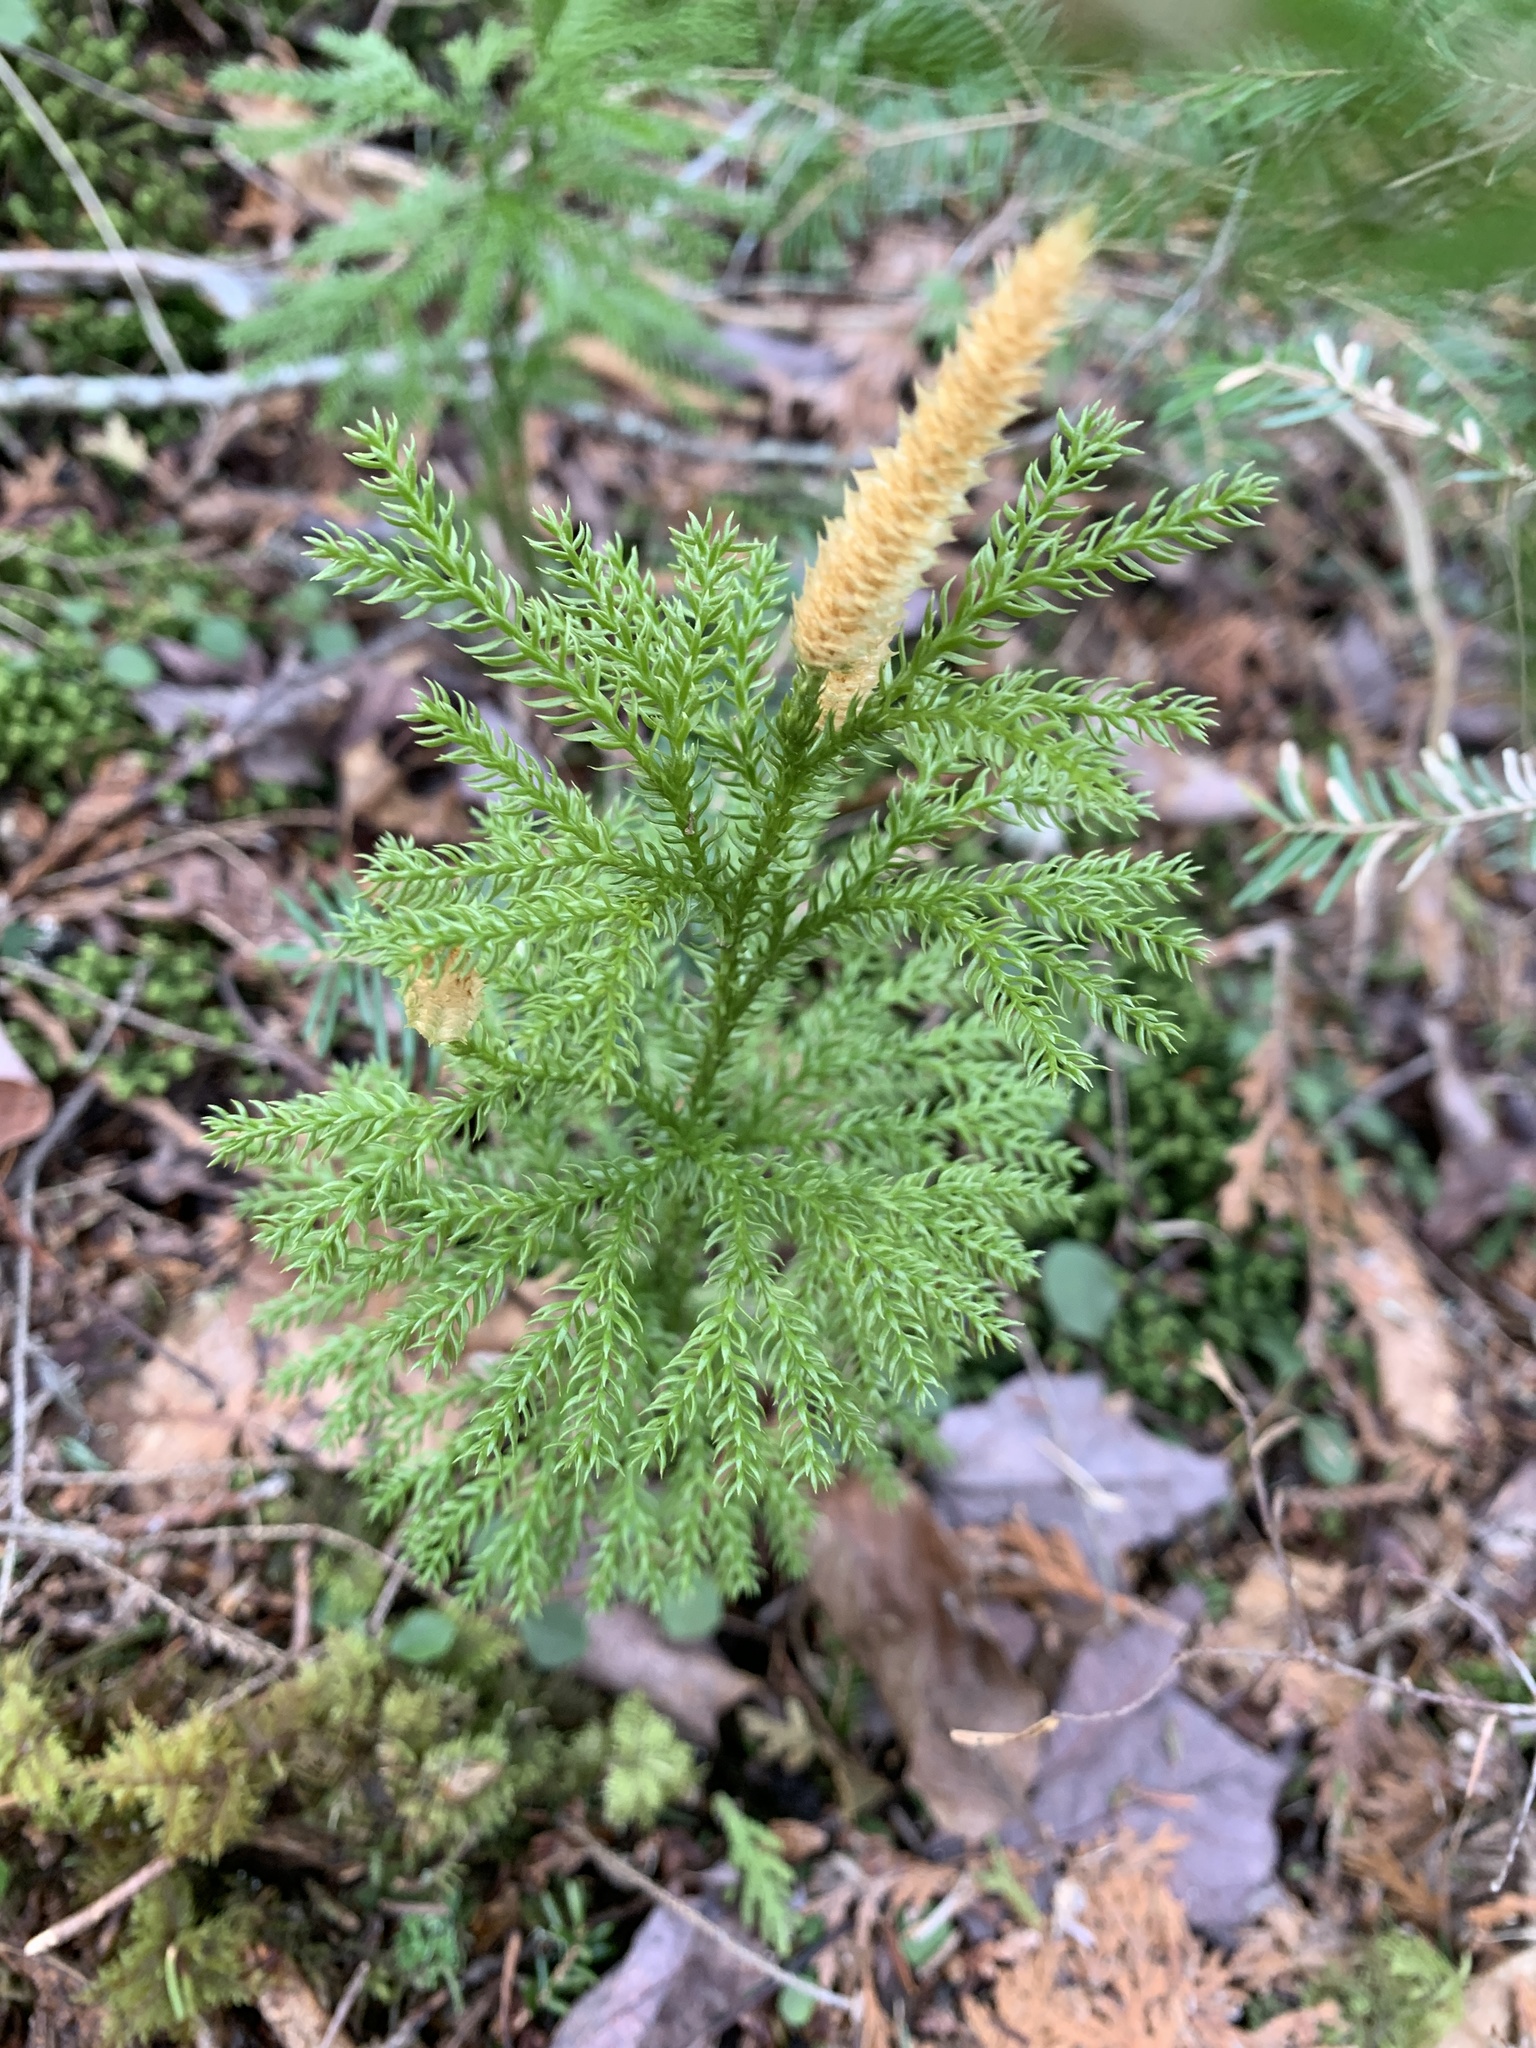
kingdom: Plantae
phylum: Tracheophyta
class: Lycopodiopsida
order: Lycopodiales
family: Lycopodiaceae
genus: Dendrolycopodium
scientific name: Dendrolycopodium dendroideum
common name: Northern tree-clubmoss
